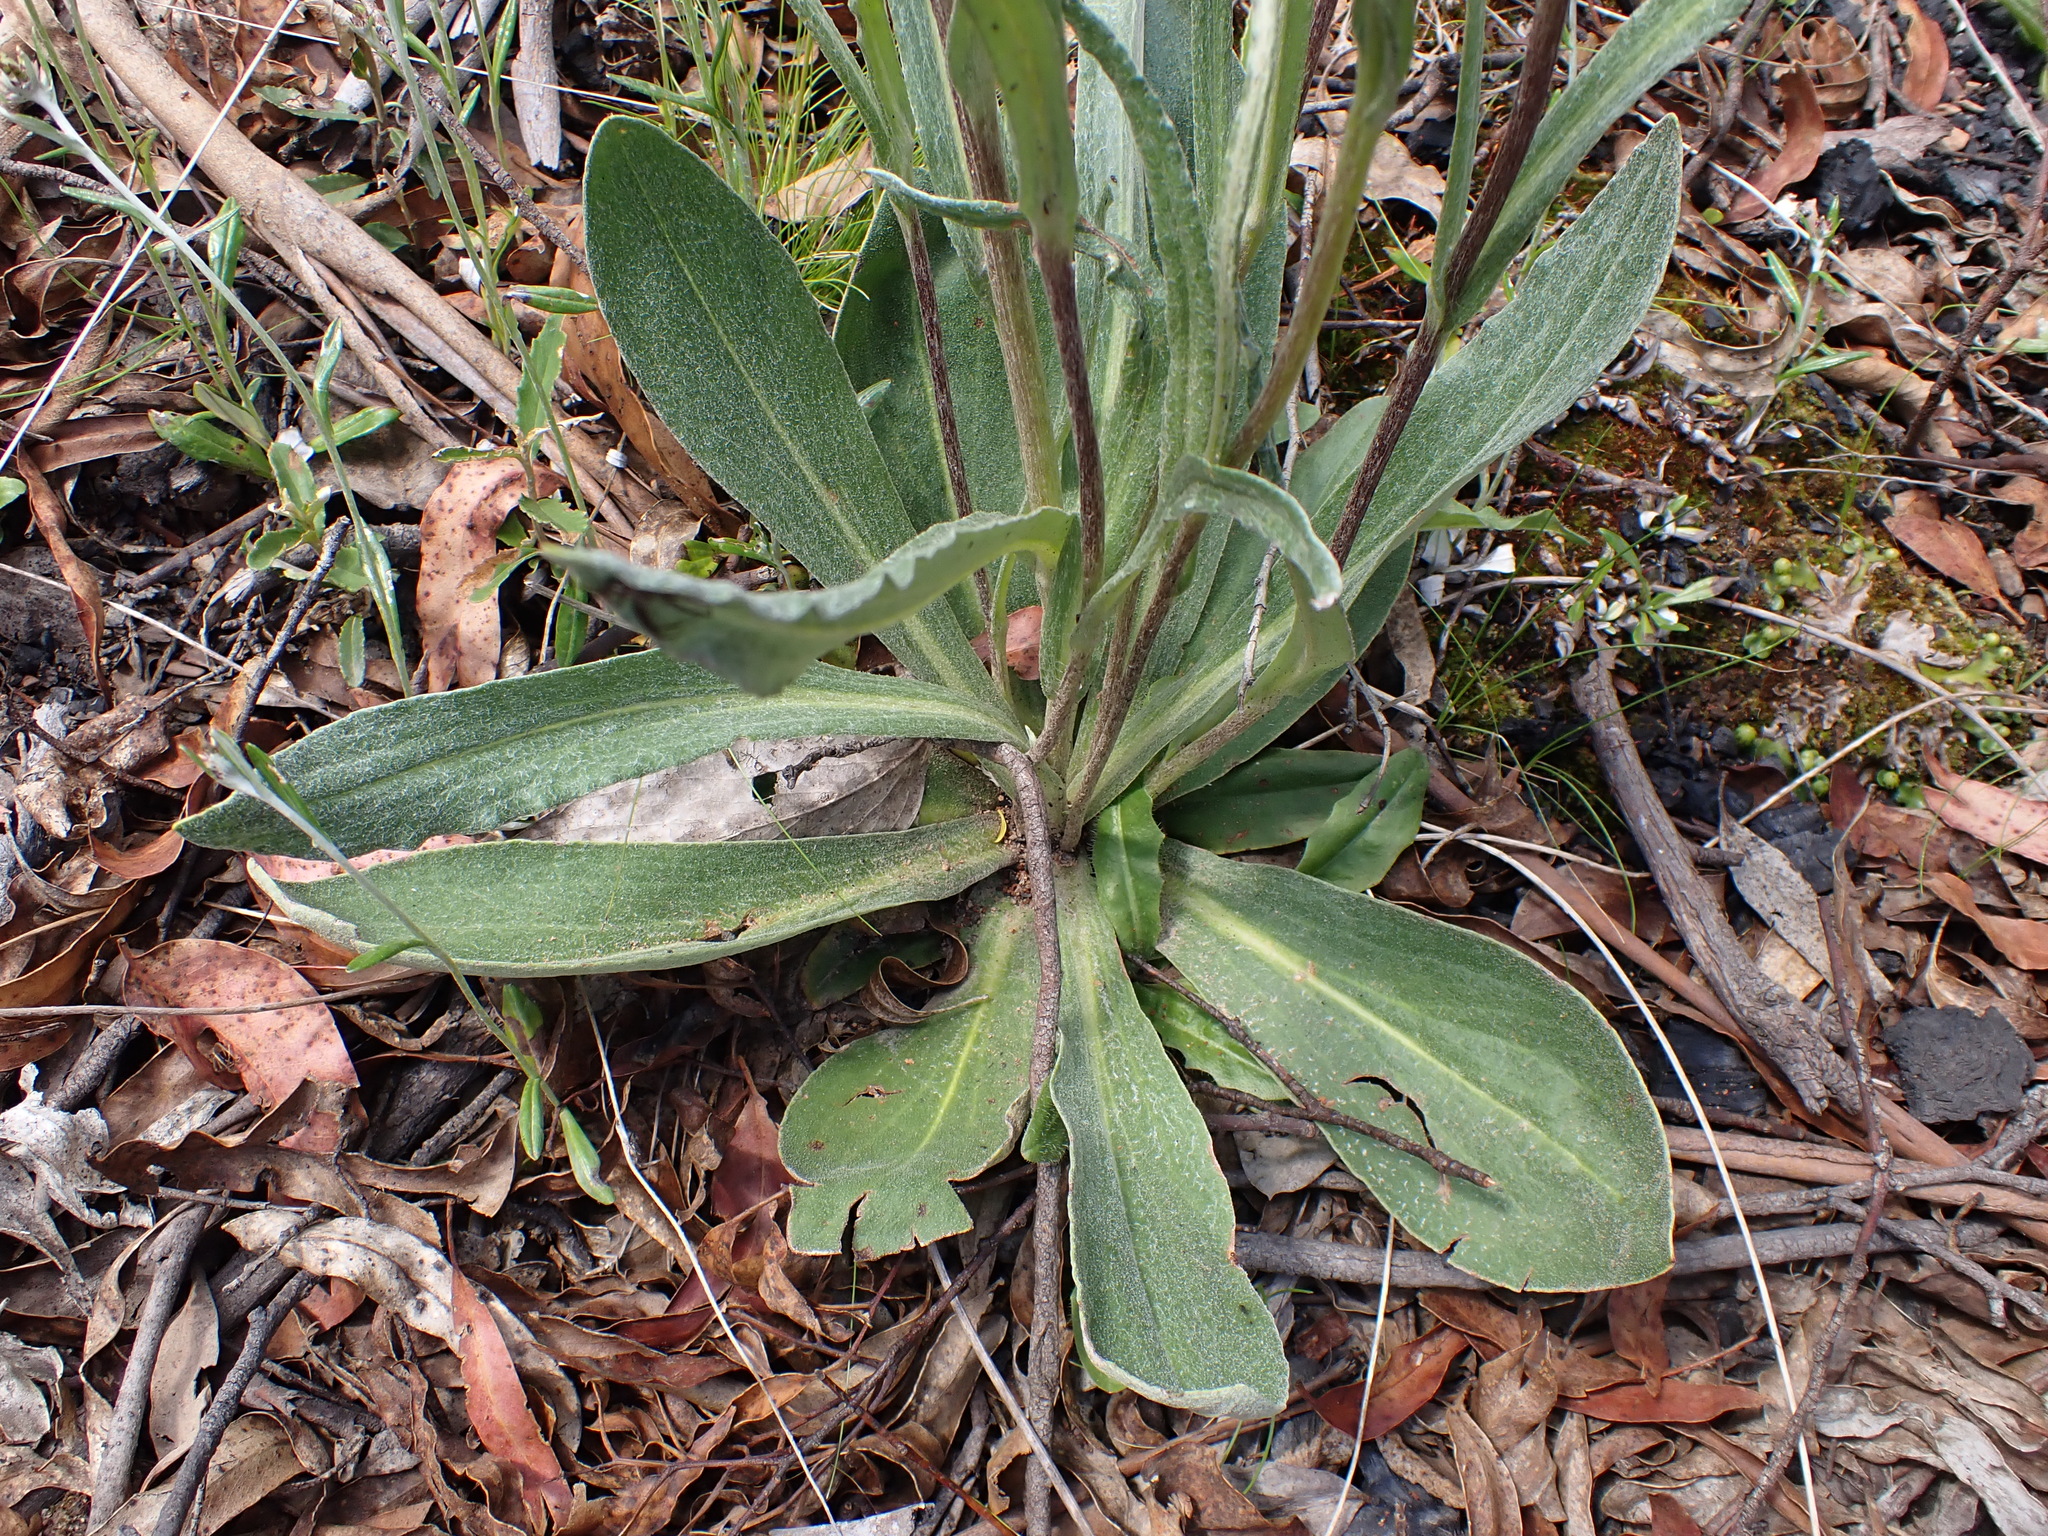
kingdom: Plantae
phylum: Tracheophyta
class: Magnoliopsida
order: Asterales
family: Asteraceae
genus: Podolepis
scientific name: Podolepis laciniata
